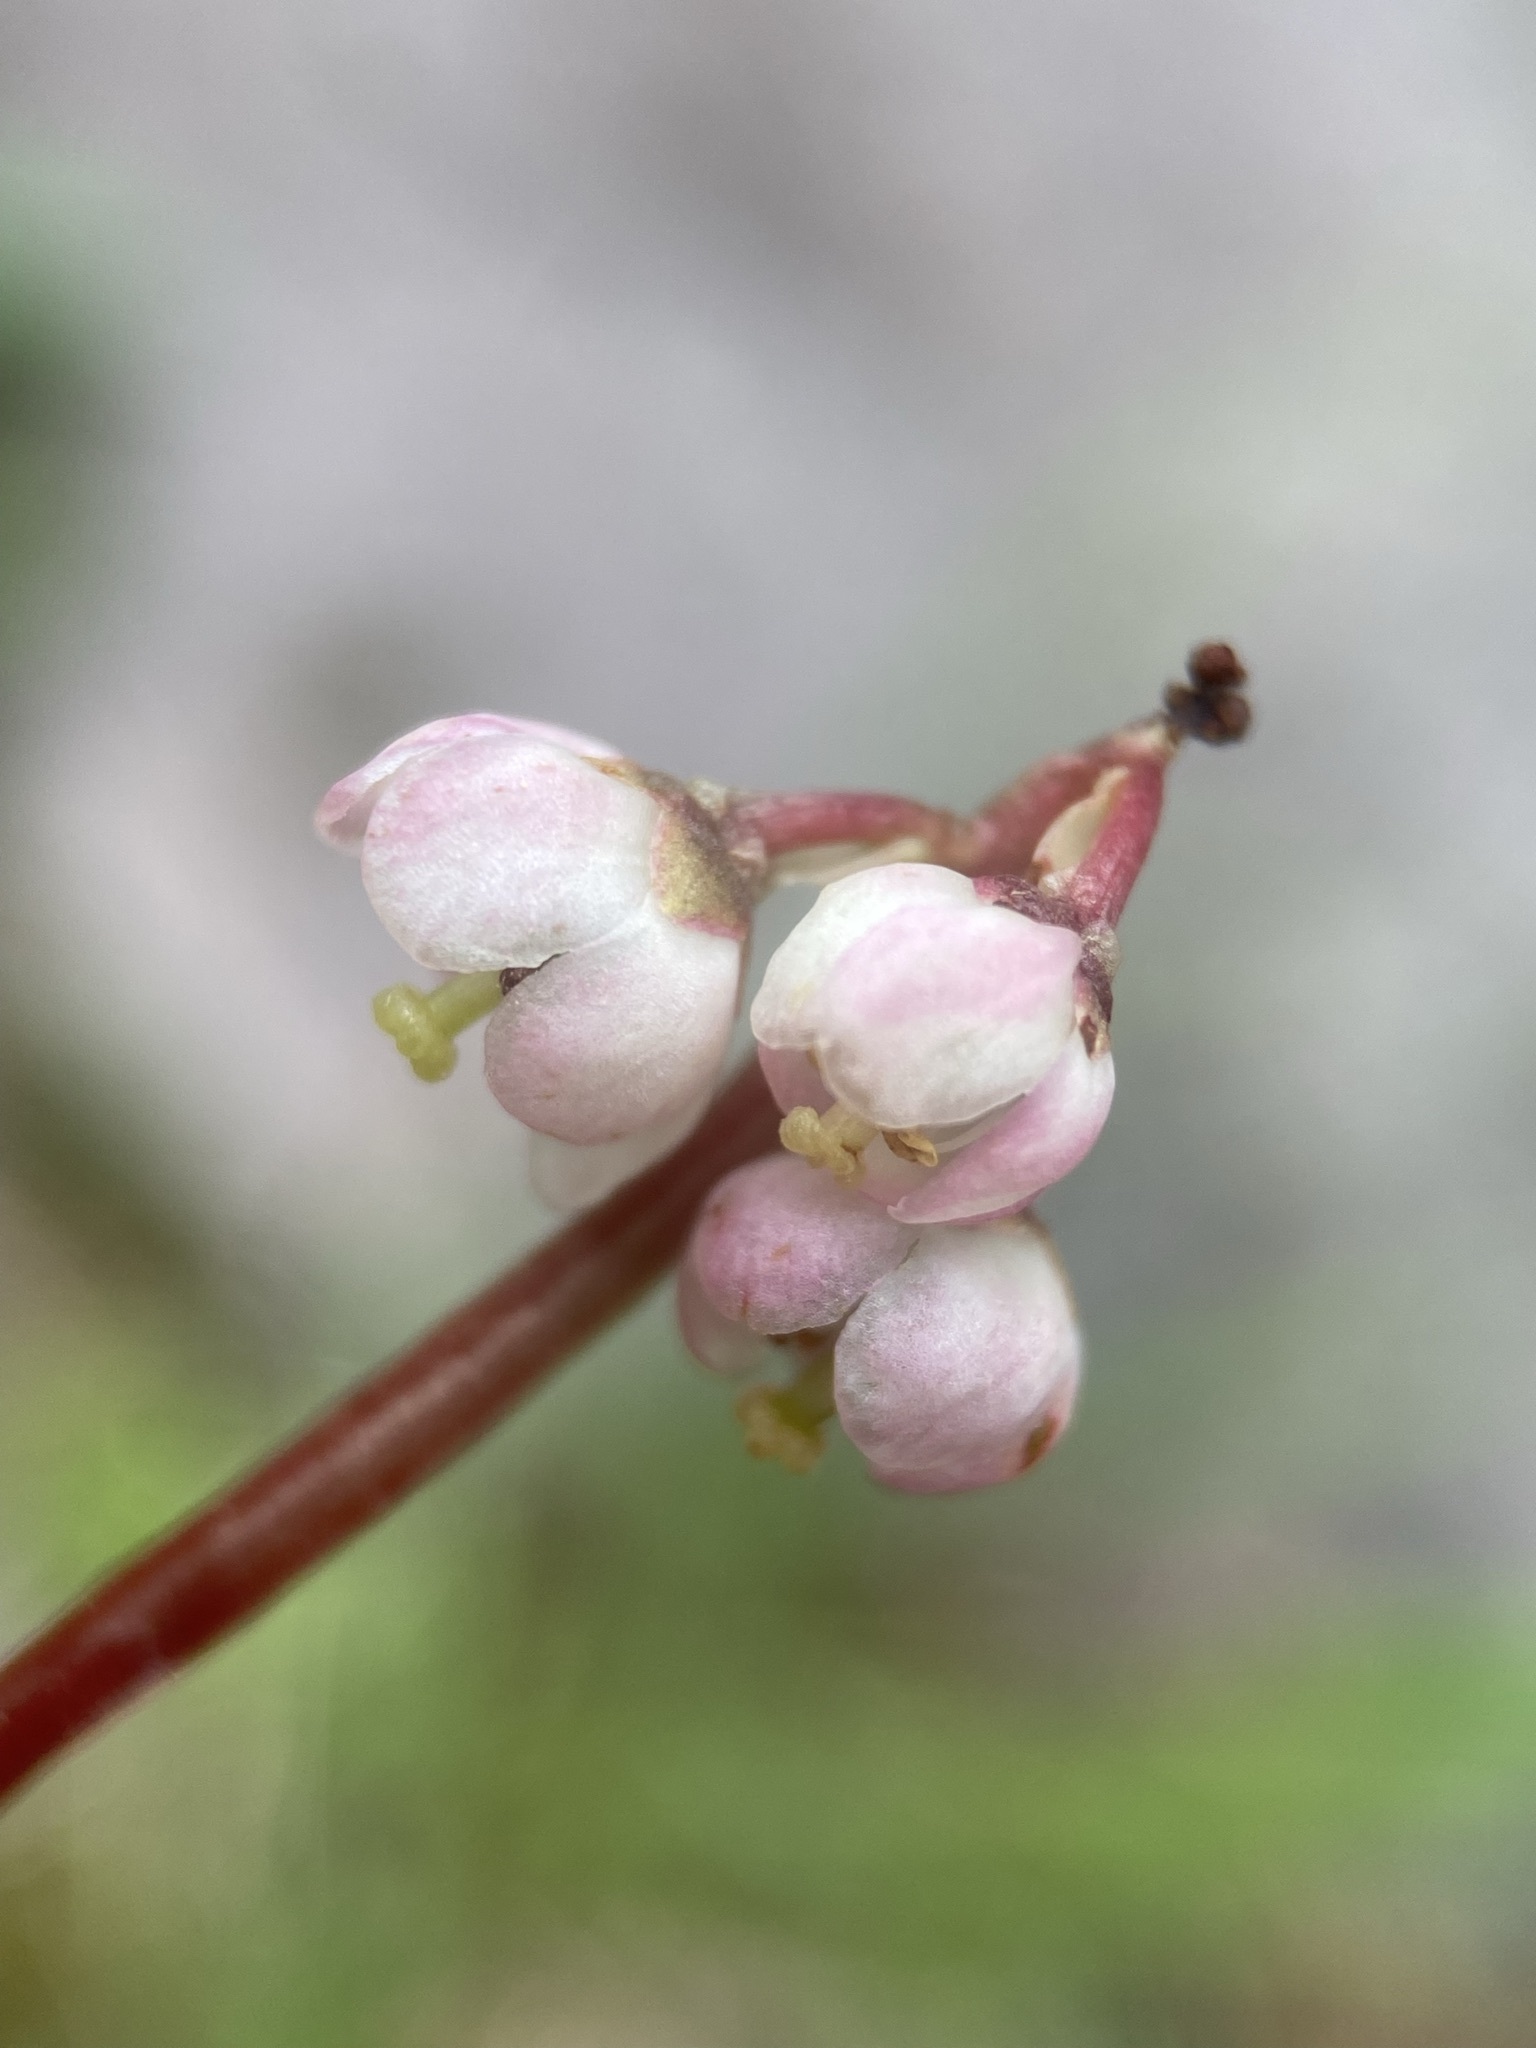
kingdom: Plantae
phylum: Tracheophyta
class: Magnoliopsida
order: Ericales
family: Ericaceae
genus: Pyrola
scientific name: Pyrola minor
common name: Common wintergreen
